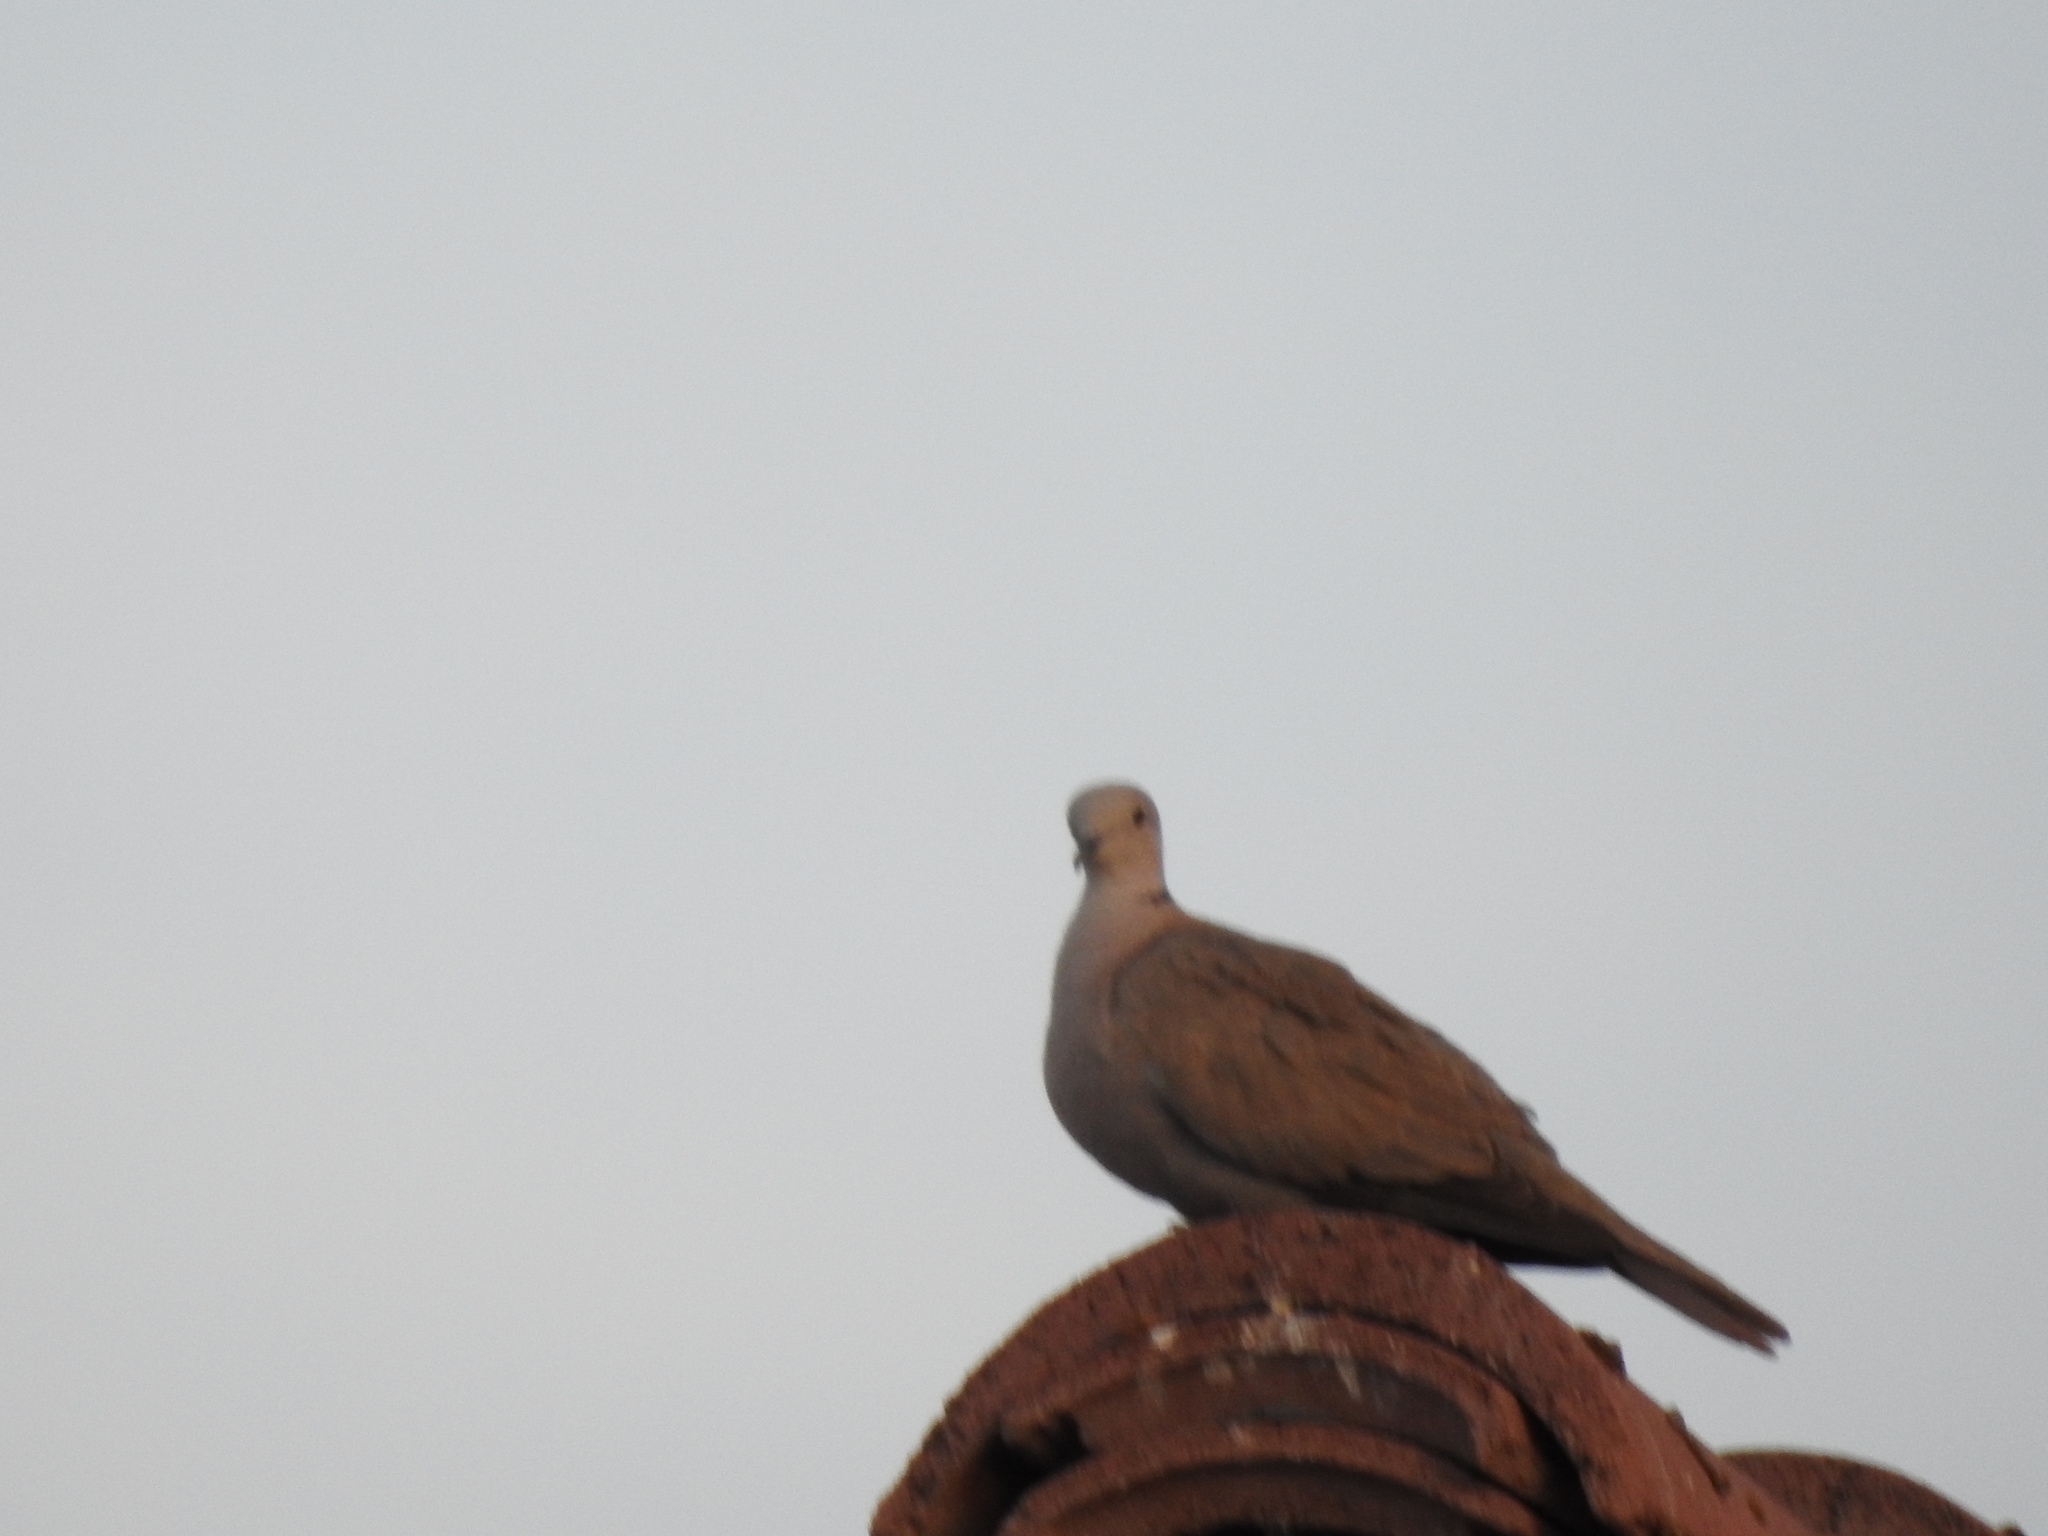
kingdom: Animalia
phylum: Chordata
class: Aves
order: Columbiformes
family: Columbidae
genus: Streptopelia
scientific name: Streptopelia decaocto
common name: Eurasian collared dove
